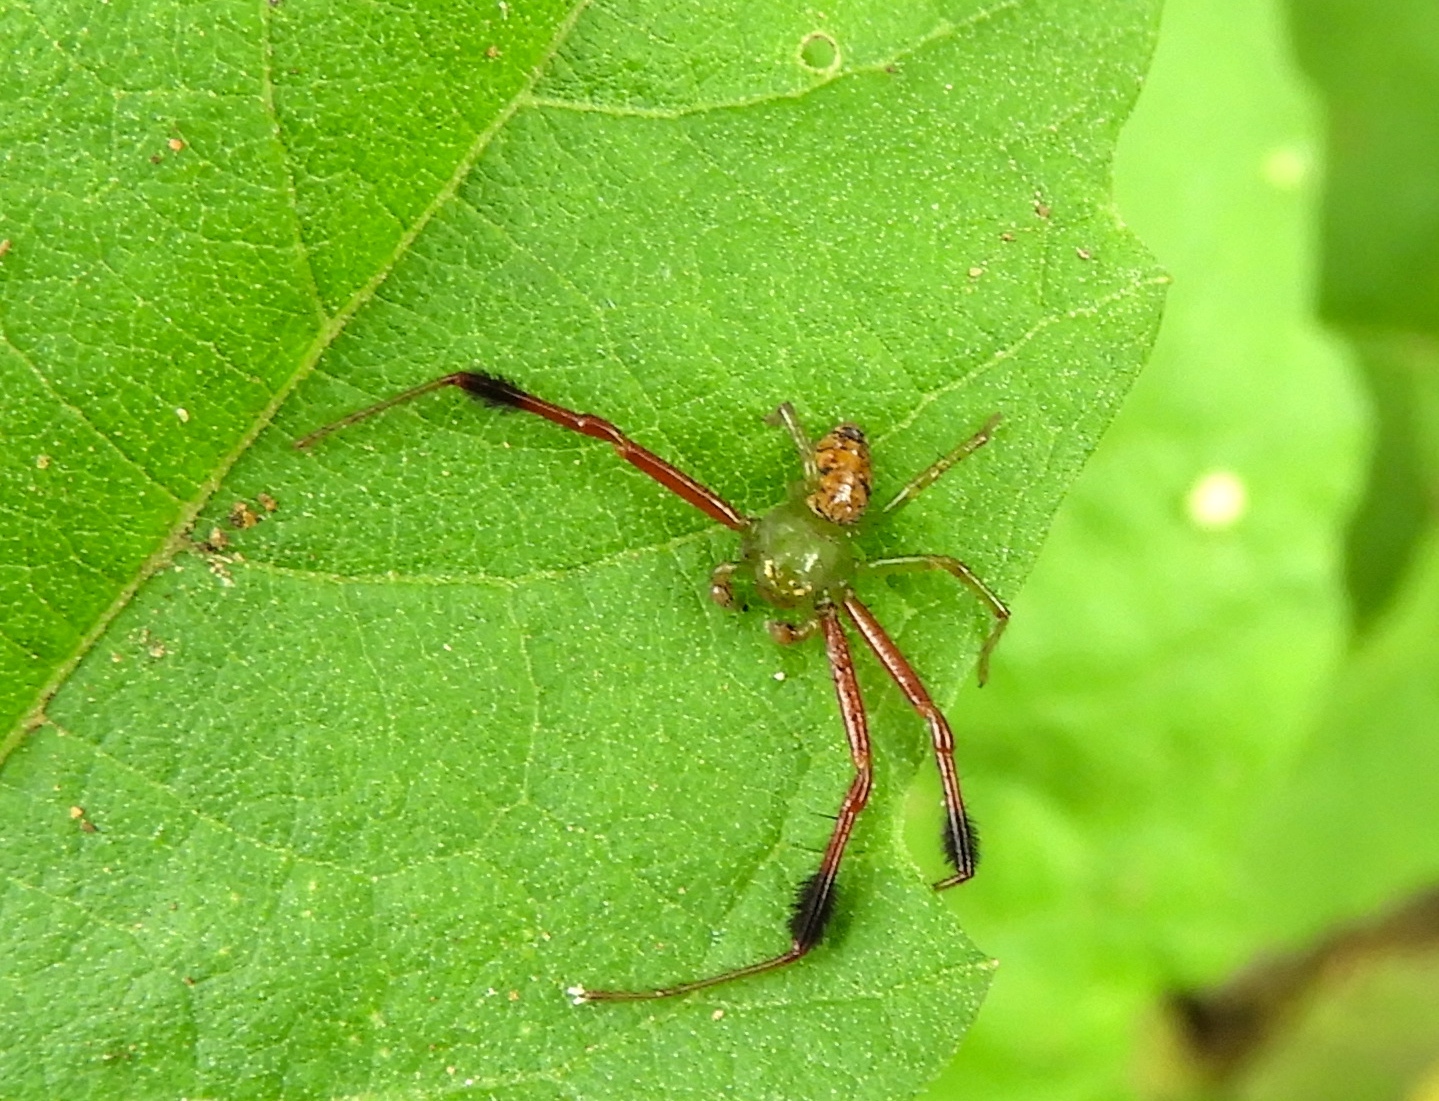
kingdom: Animalia
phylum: Arthropoda
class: Arachnida
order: Araneae
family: Thomisidae
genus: Parasynema
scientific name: Parasynema cirripes
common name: Crab spiders
